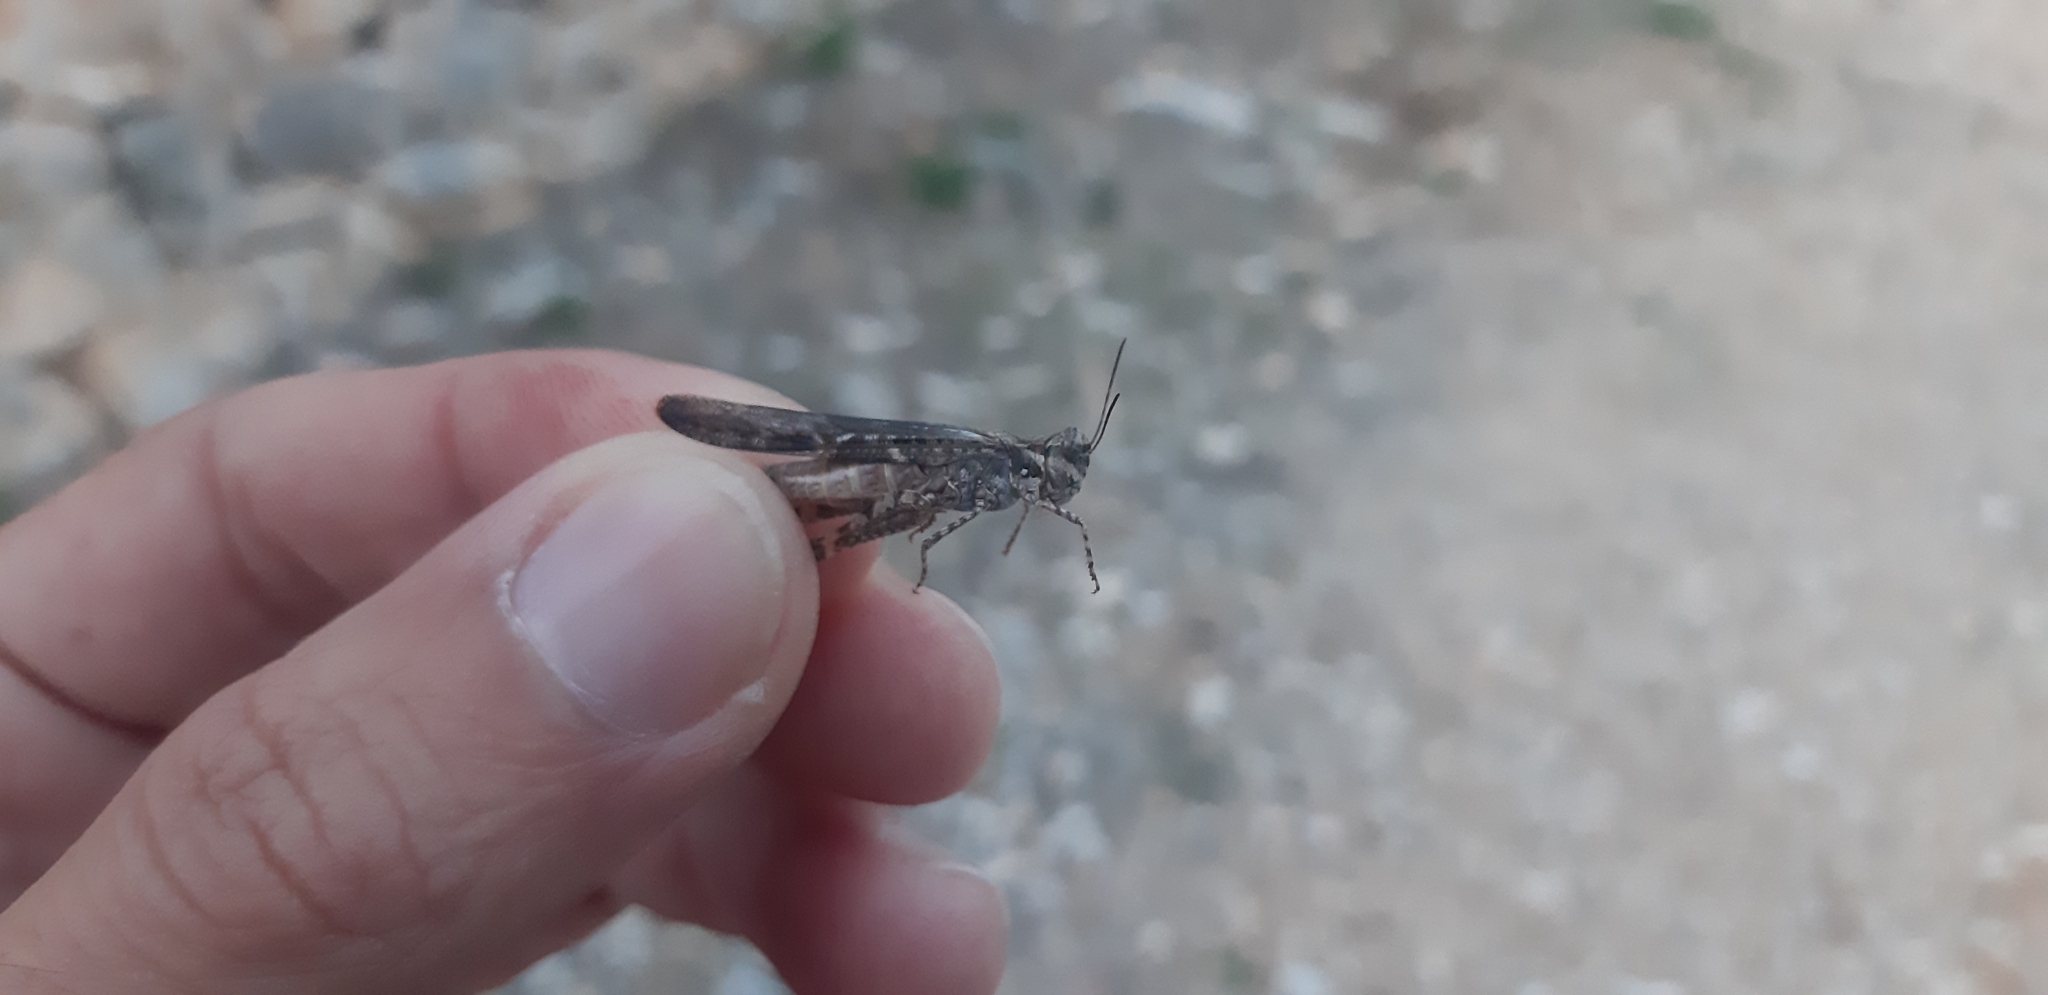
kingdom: Animalia
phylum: Arthropoda
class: Insecta
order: Orthoptera
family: Acrididae
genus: Acrotylus
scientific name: Acrotylus patruelis
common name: Slender burrowing grasshopper
